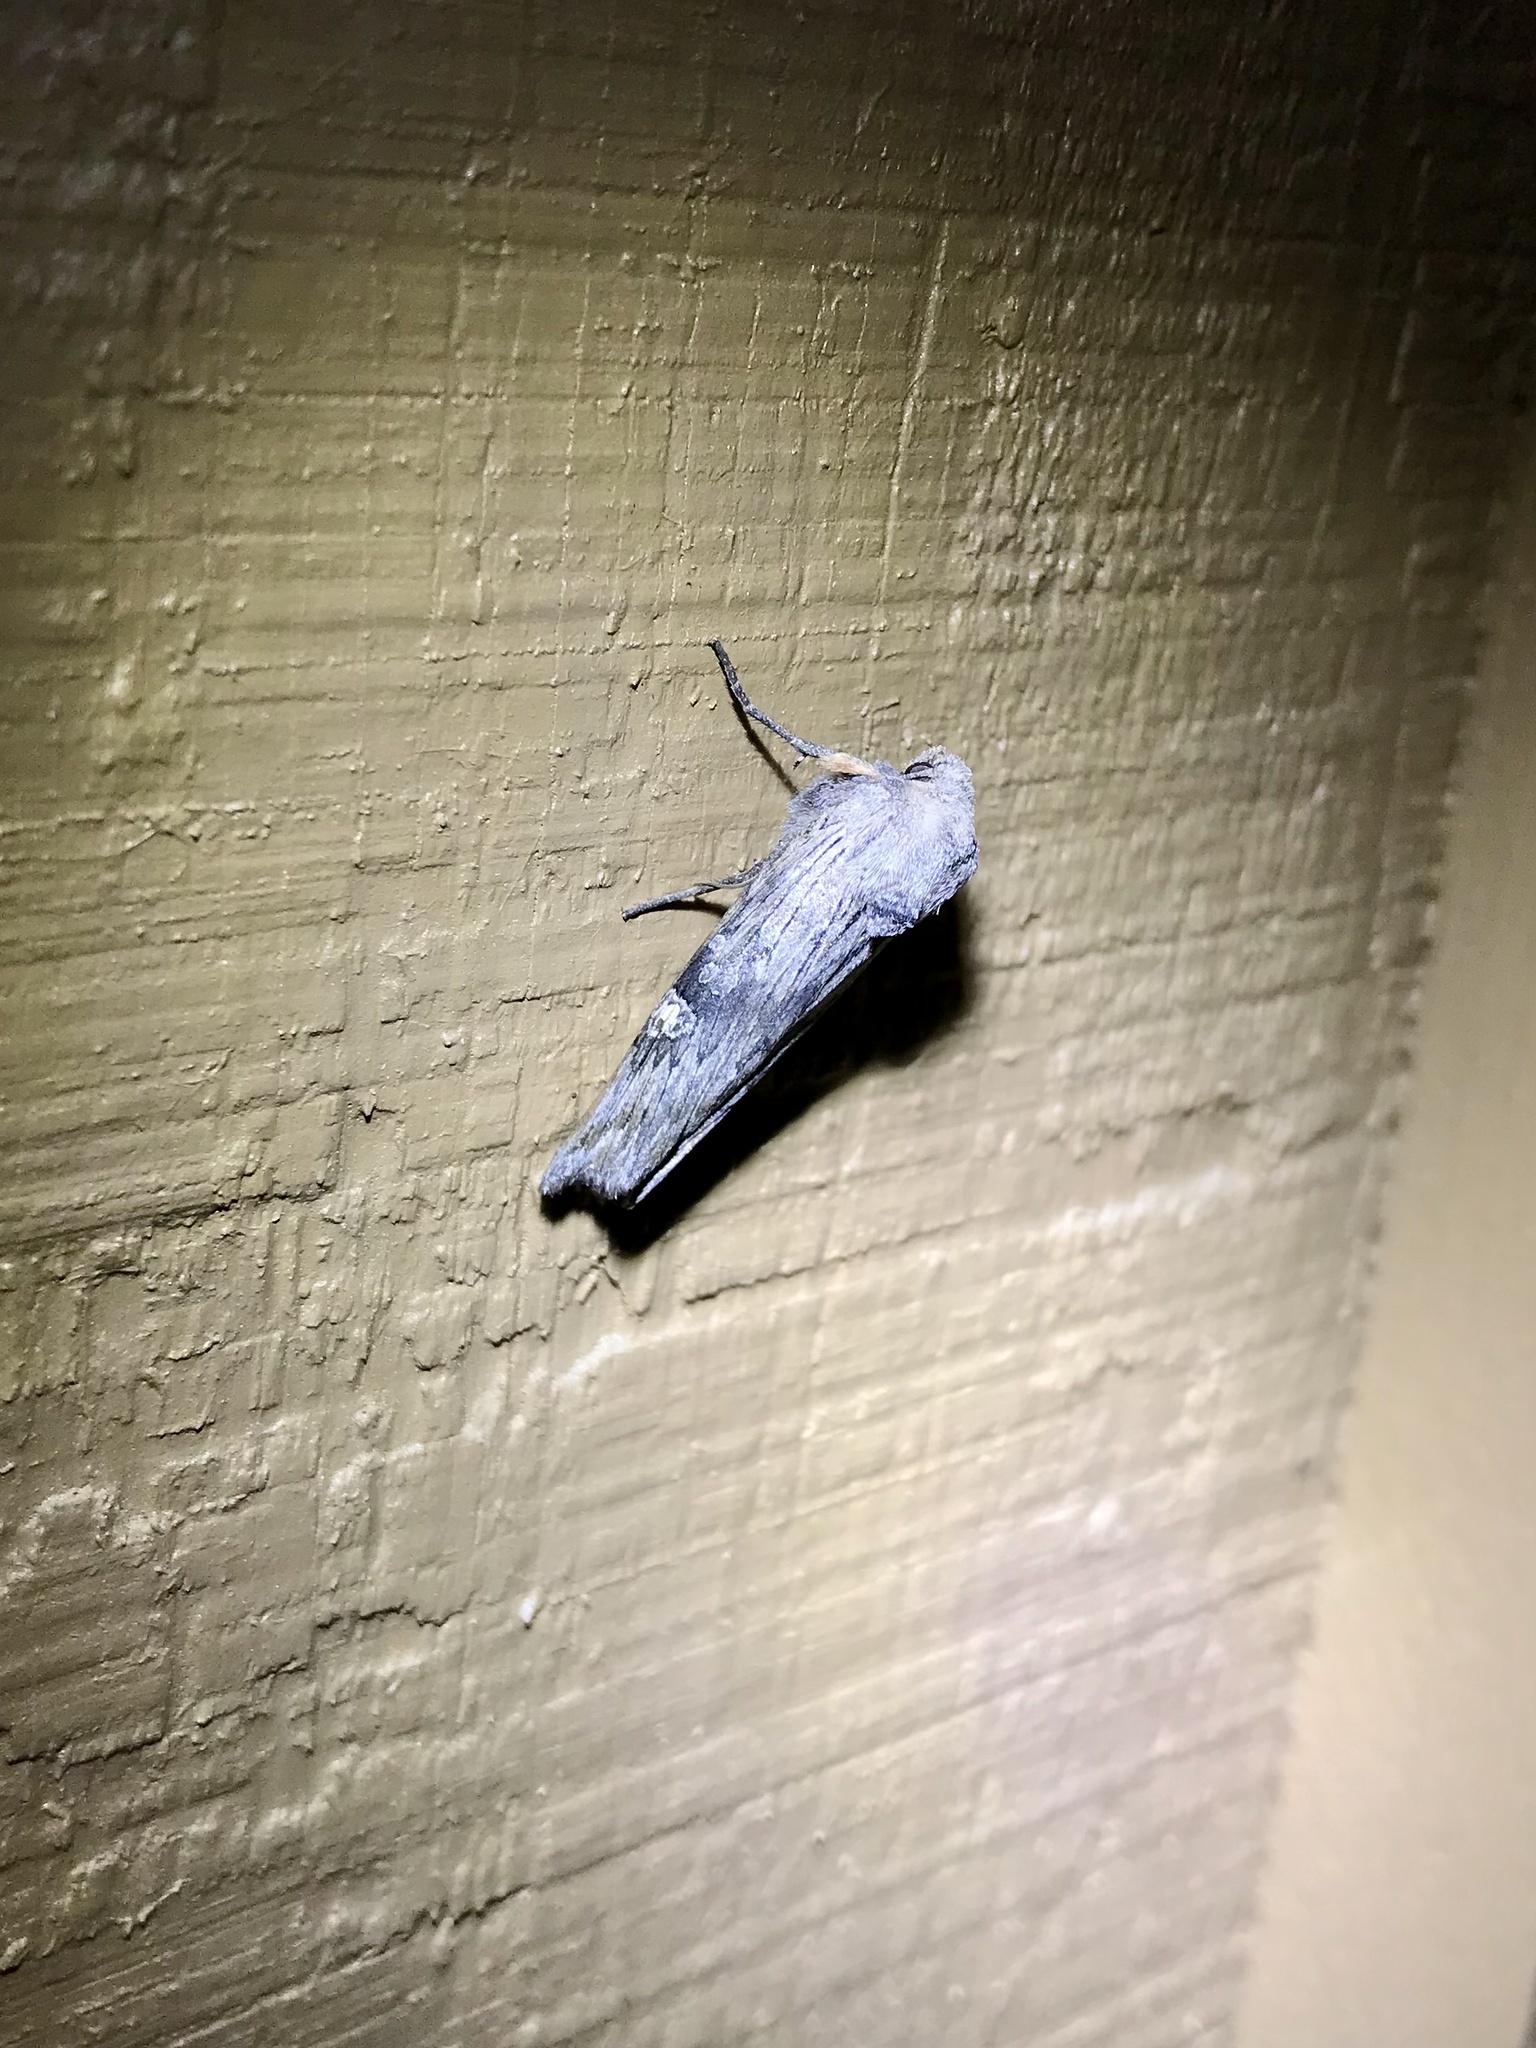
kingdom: Animalia
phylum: Arthropoda
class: Insecta
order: Lepidoptera
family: Noctuidae
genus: Xylena
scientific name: Xylena germana
